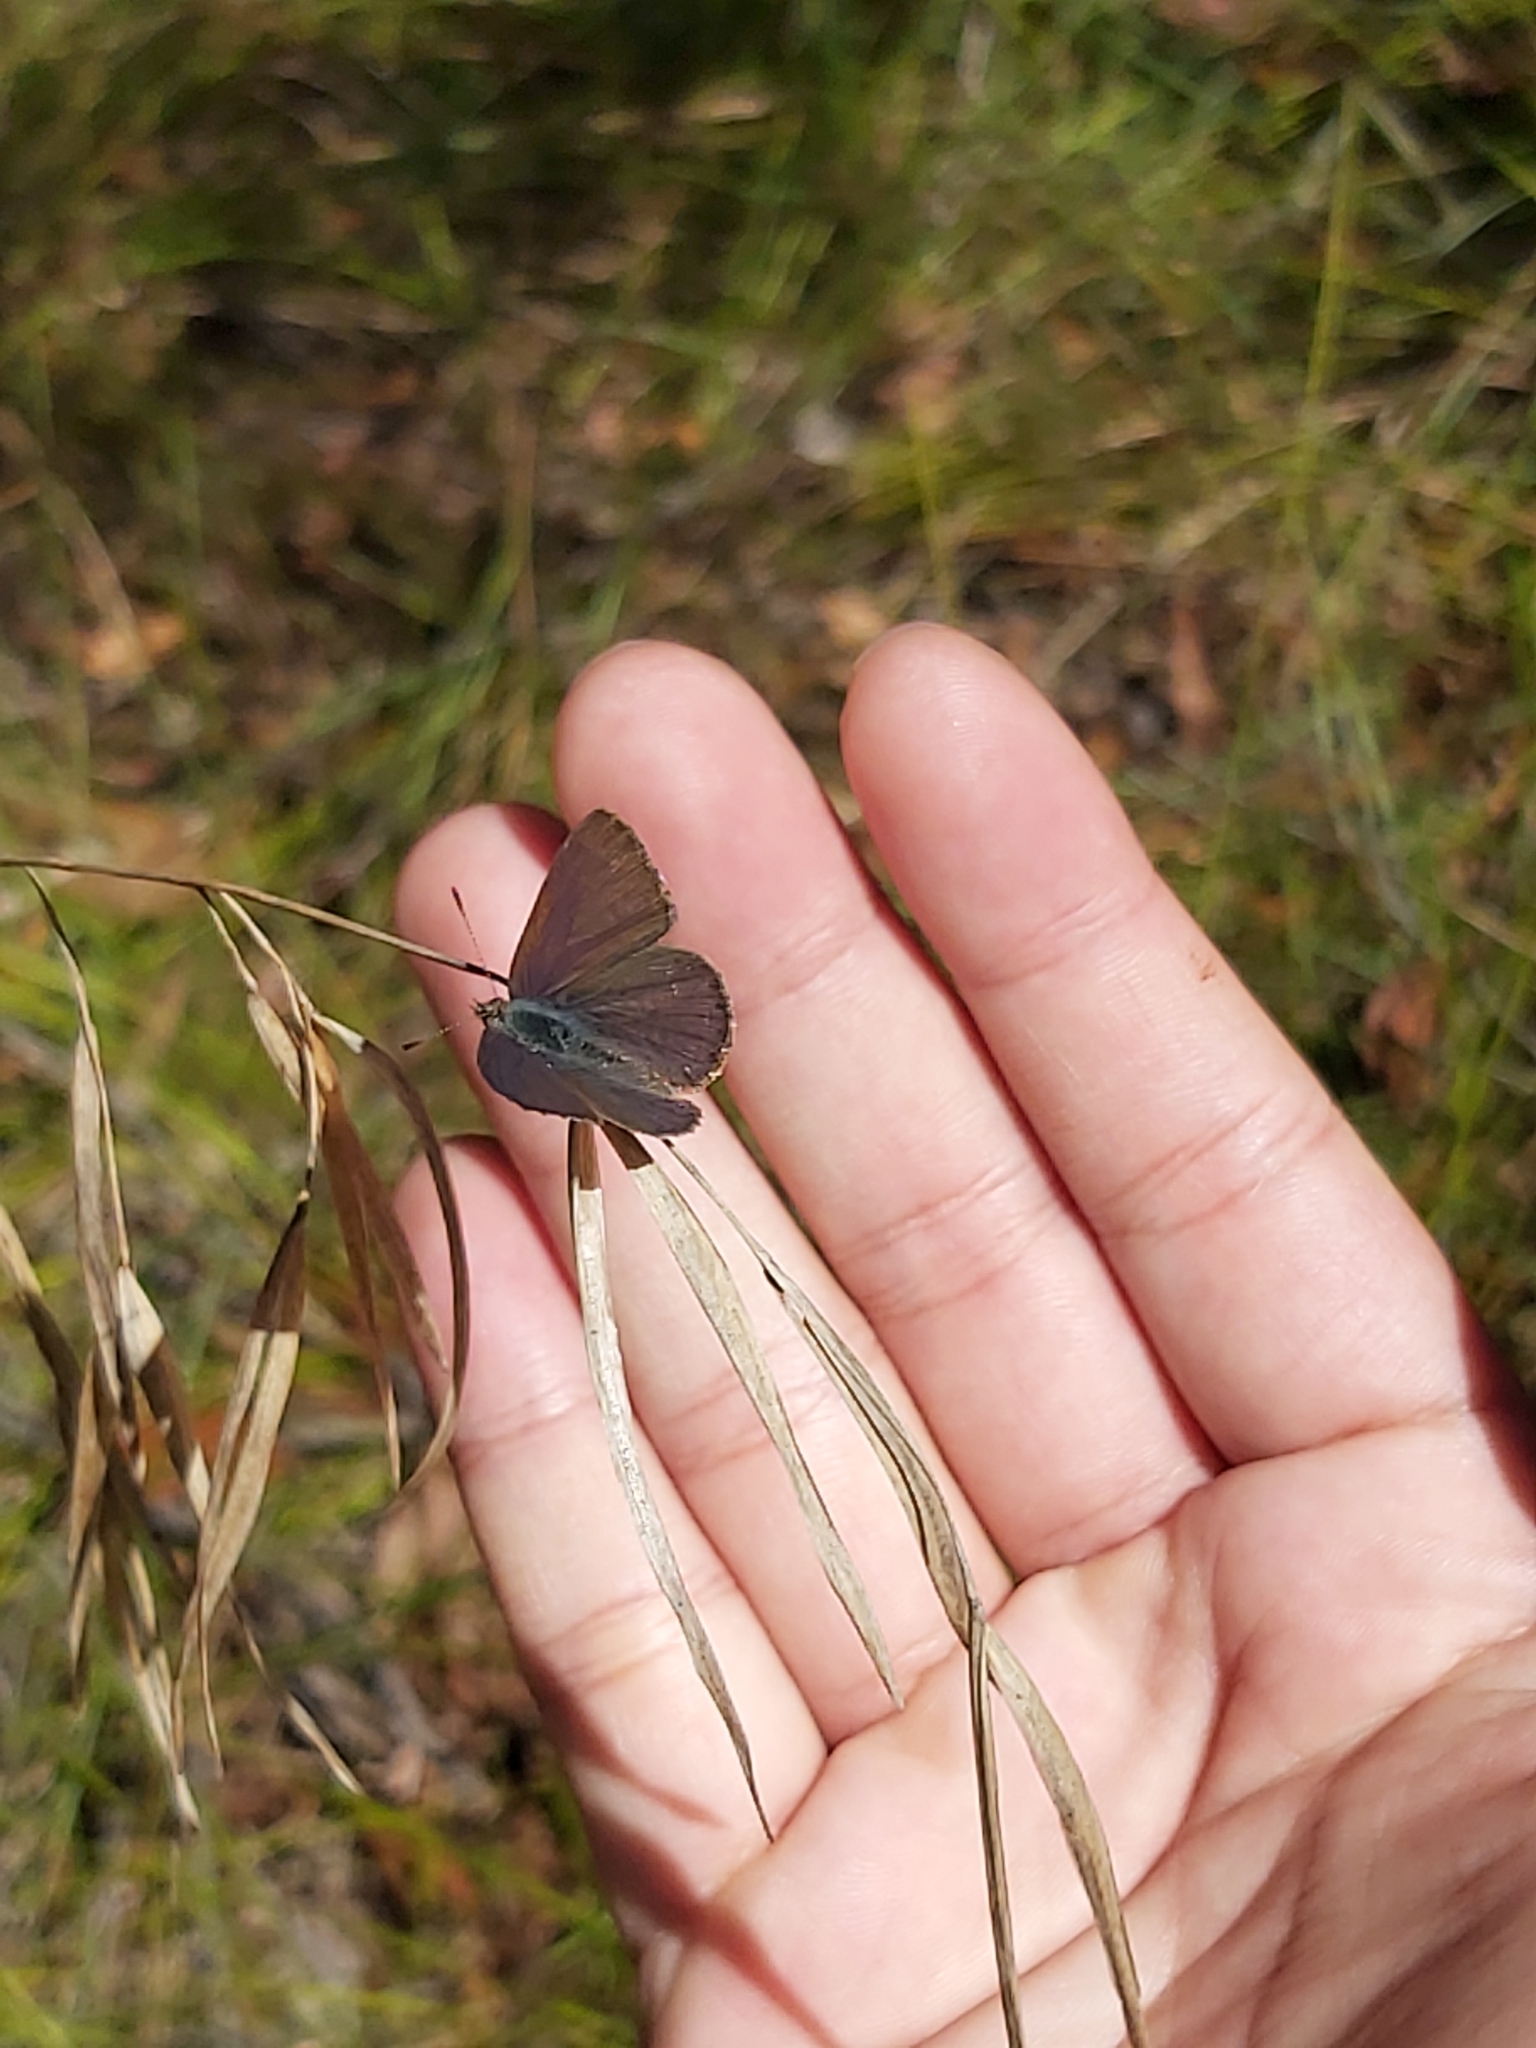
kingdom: Animalia
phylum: Arthropoda
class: Insecta
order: Lepidoptera
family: Lycaenidae
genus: Candalides
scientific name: Candalides
